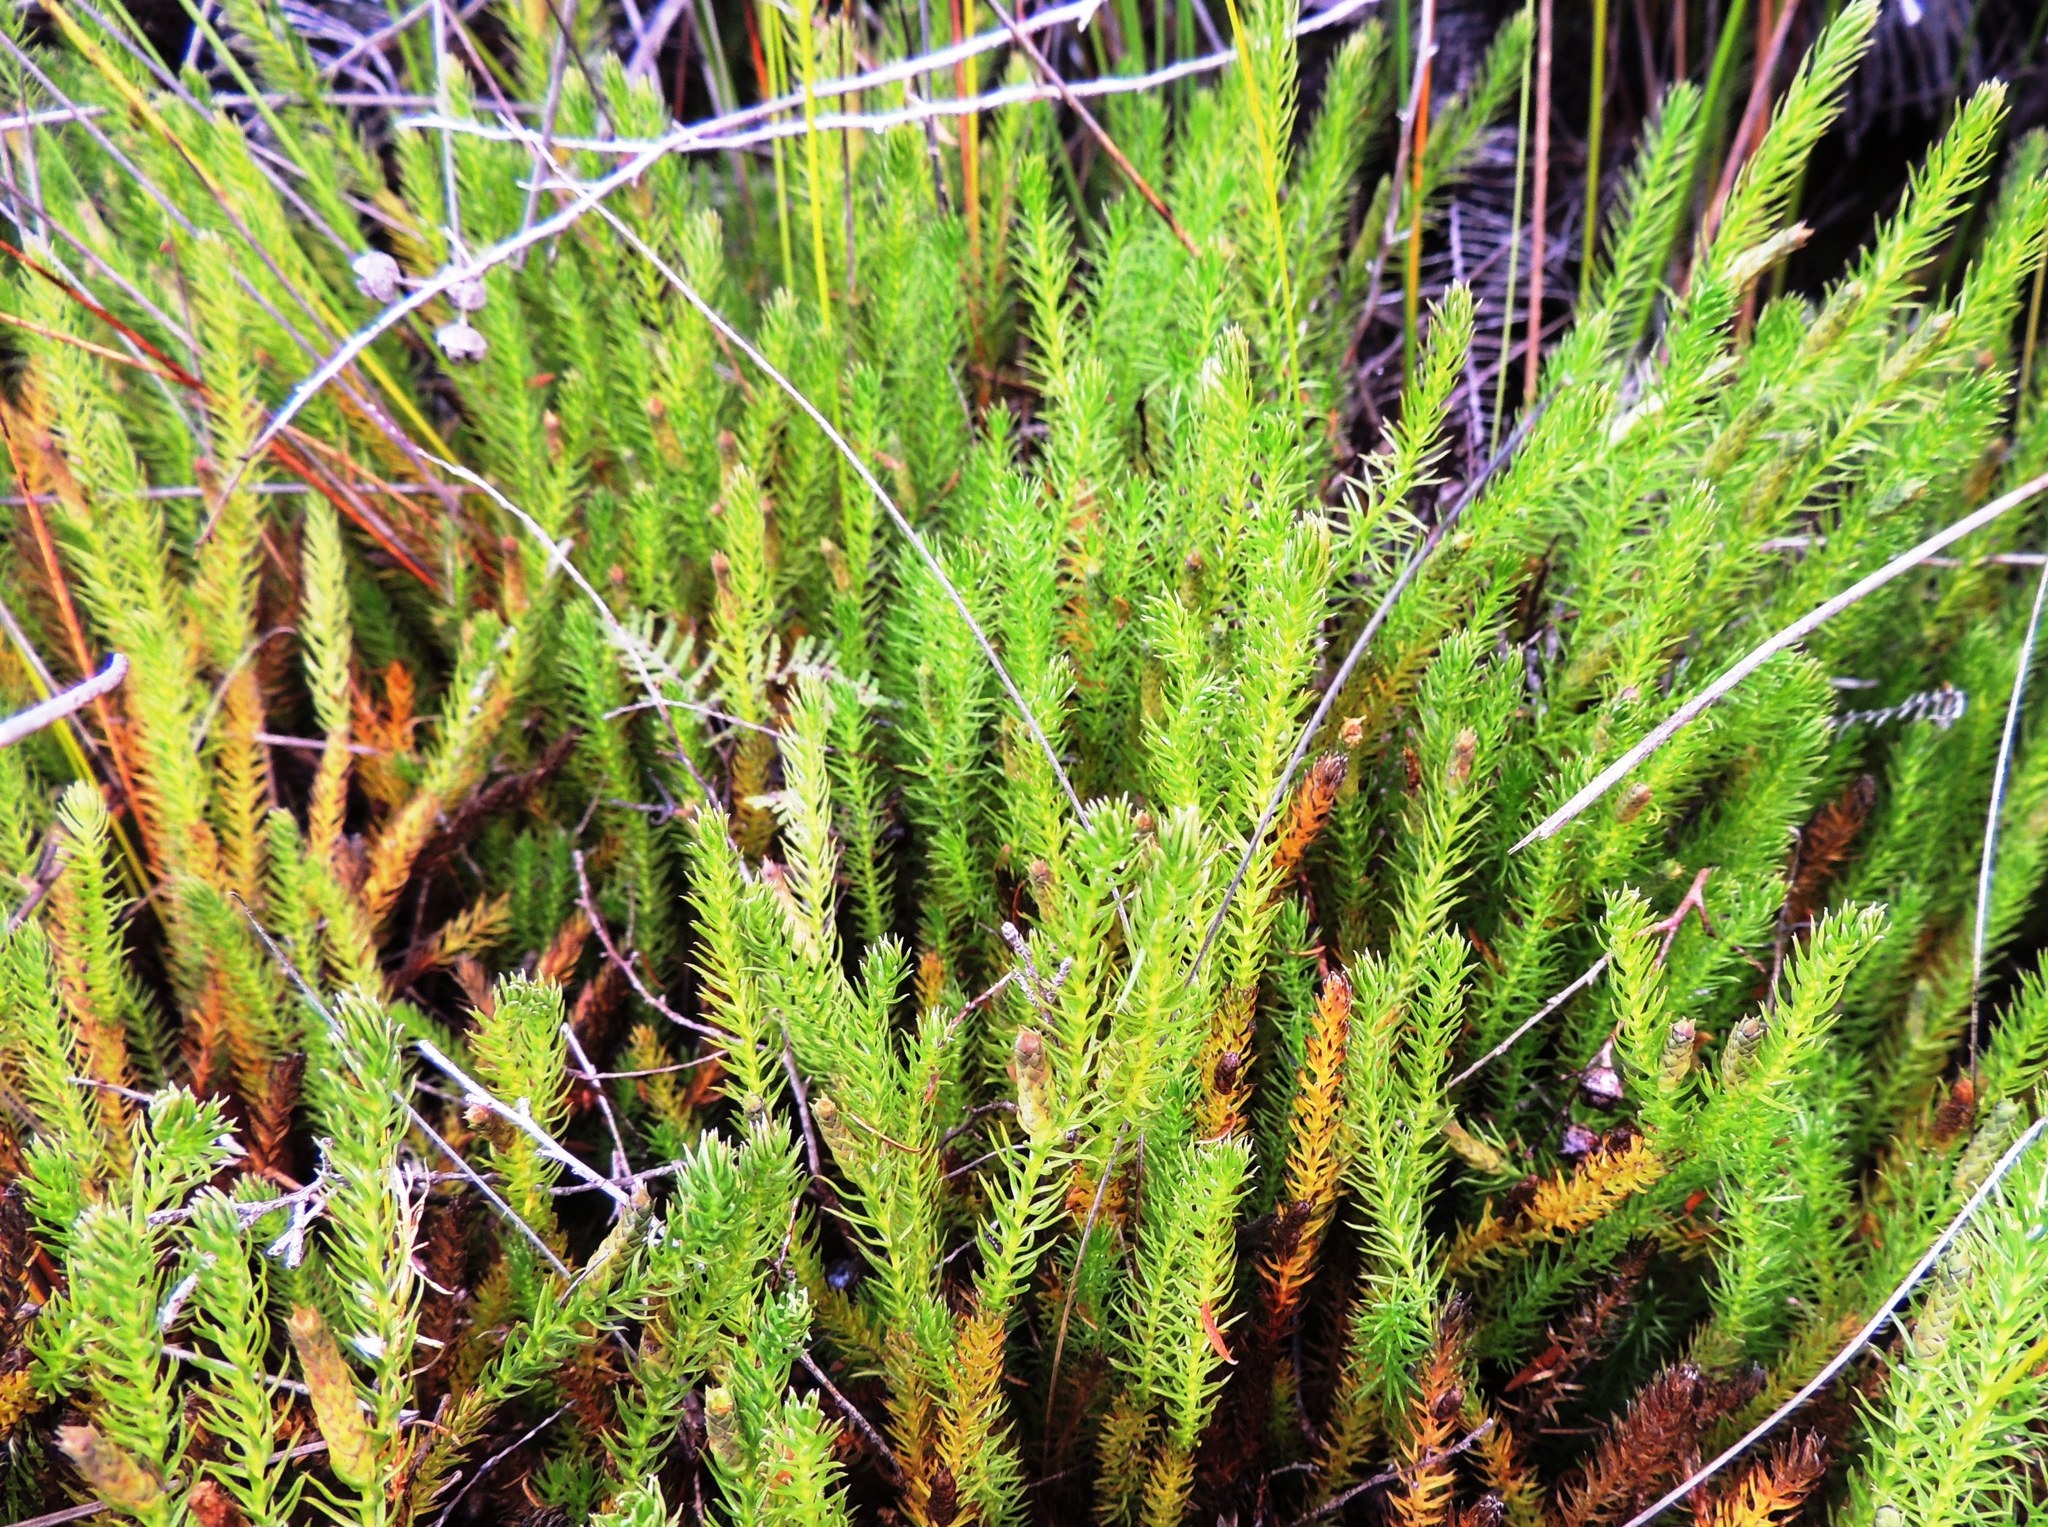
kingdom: Plantae
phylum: Tracheophyta
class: Lycopodiopsida
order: Lycopodiales
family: Lycopodiaceae
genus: Lateristachys
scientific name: Lateristachys lateralis
